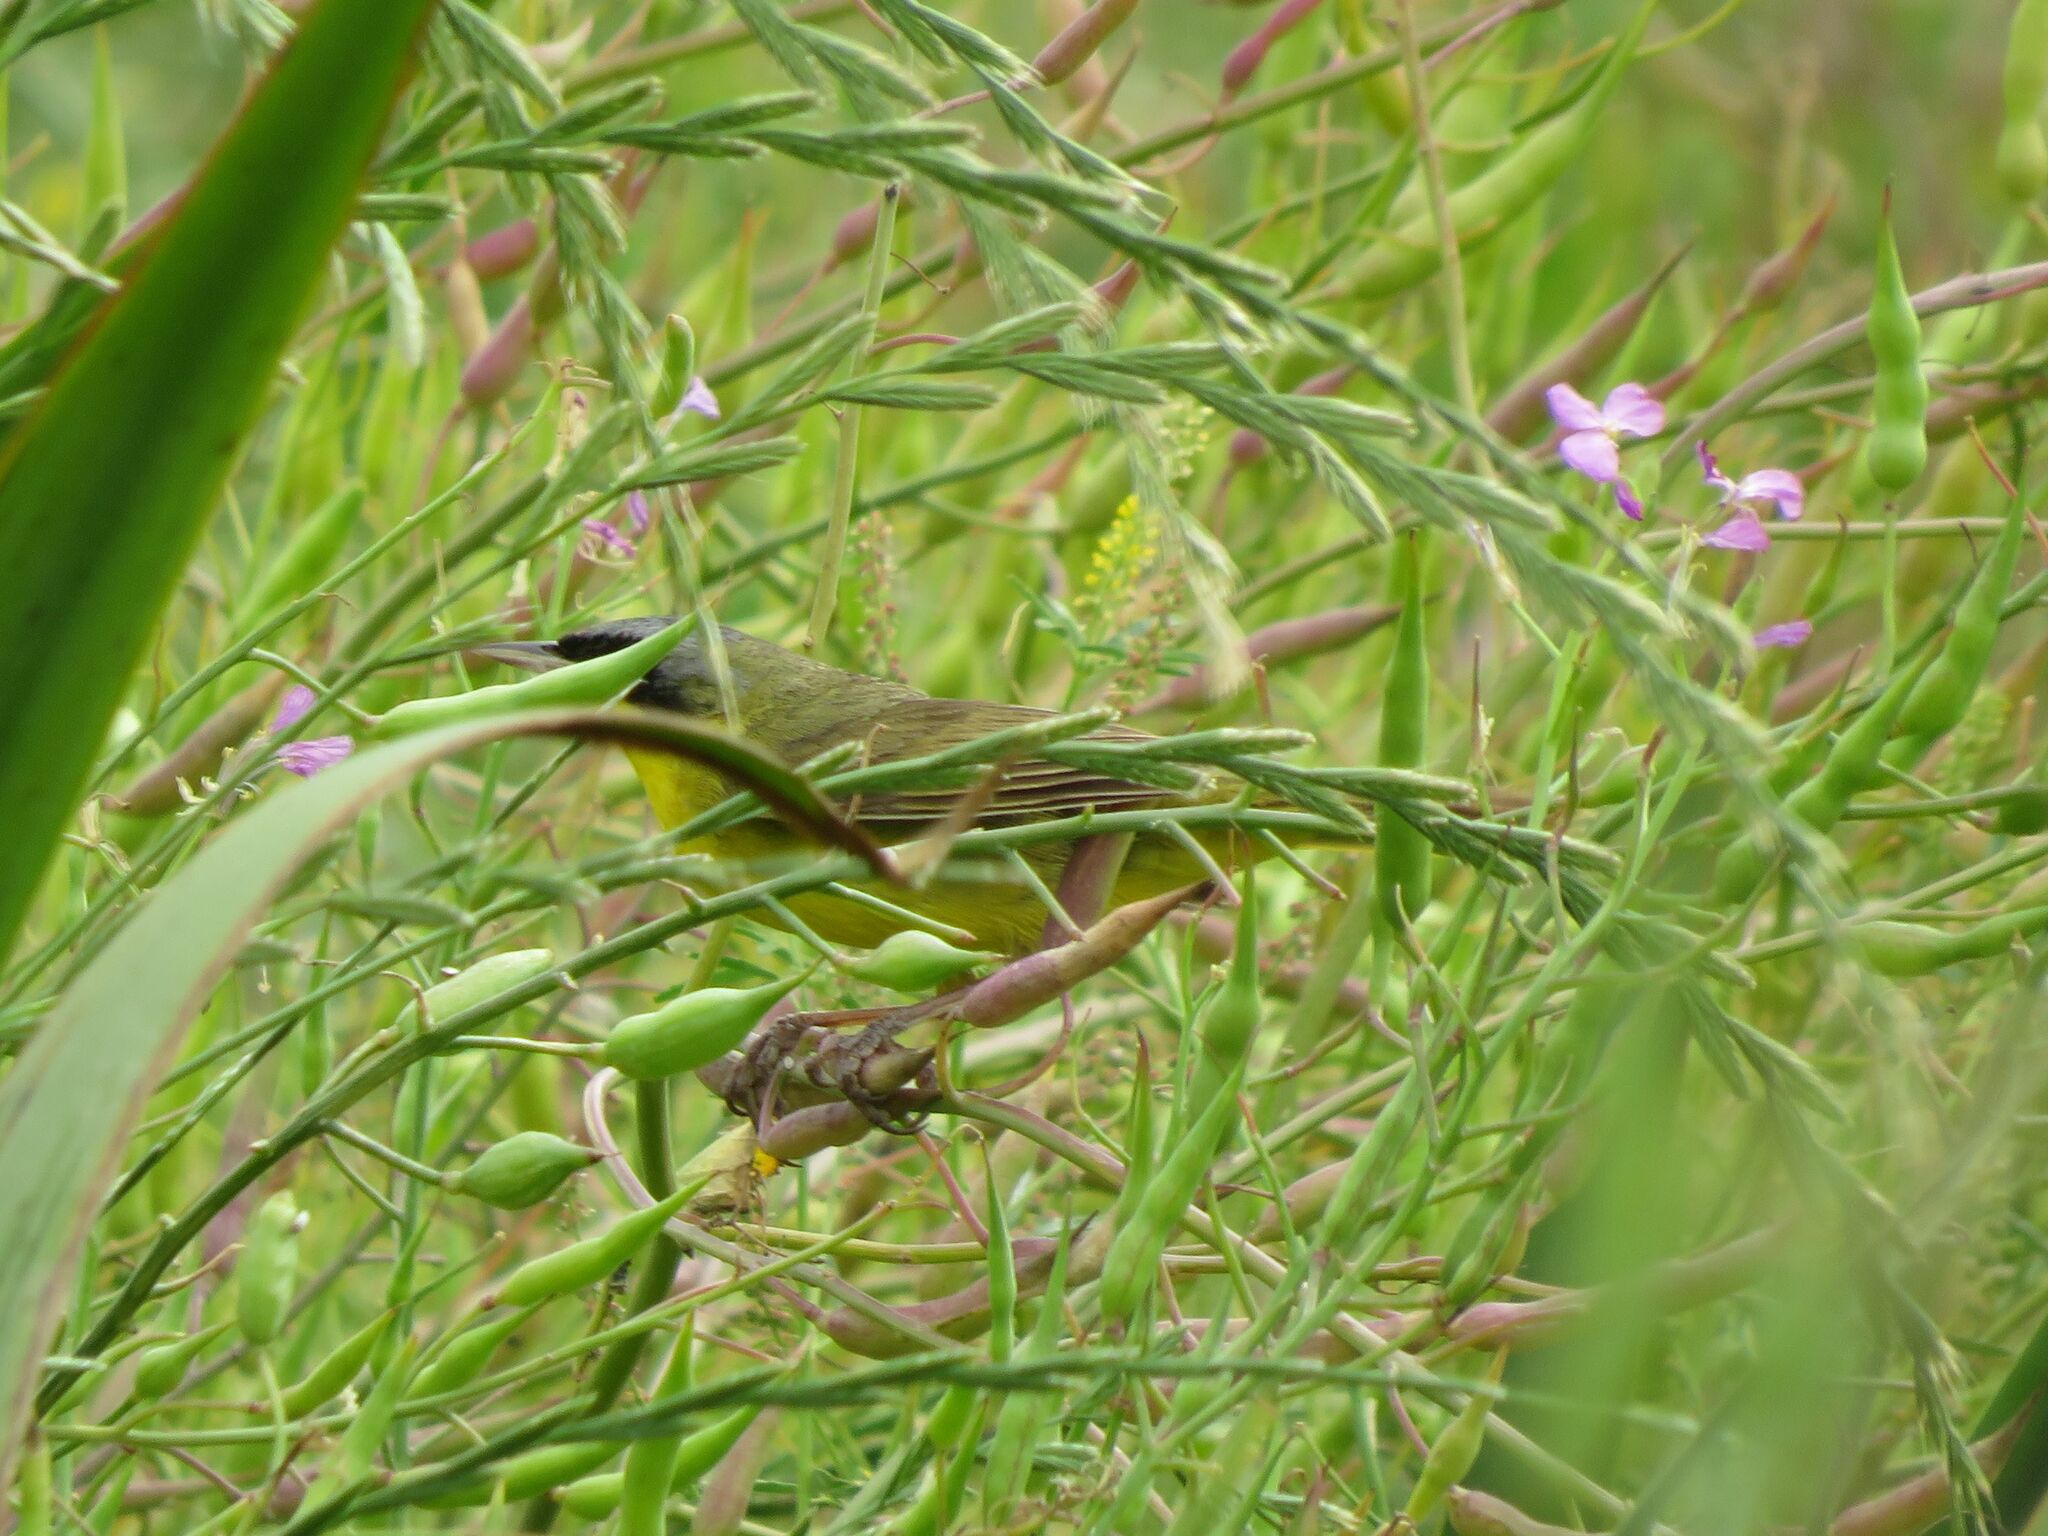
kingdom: Animalia
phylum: Chordata
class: Aves
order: Passeriformes
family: Parulidae
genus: Geothlypis
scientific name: Geothlypis velata
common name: Southern yellowthroat
